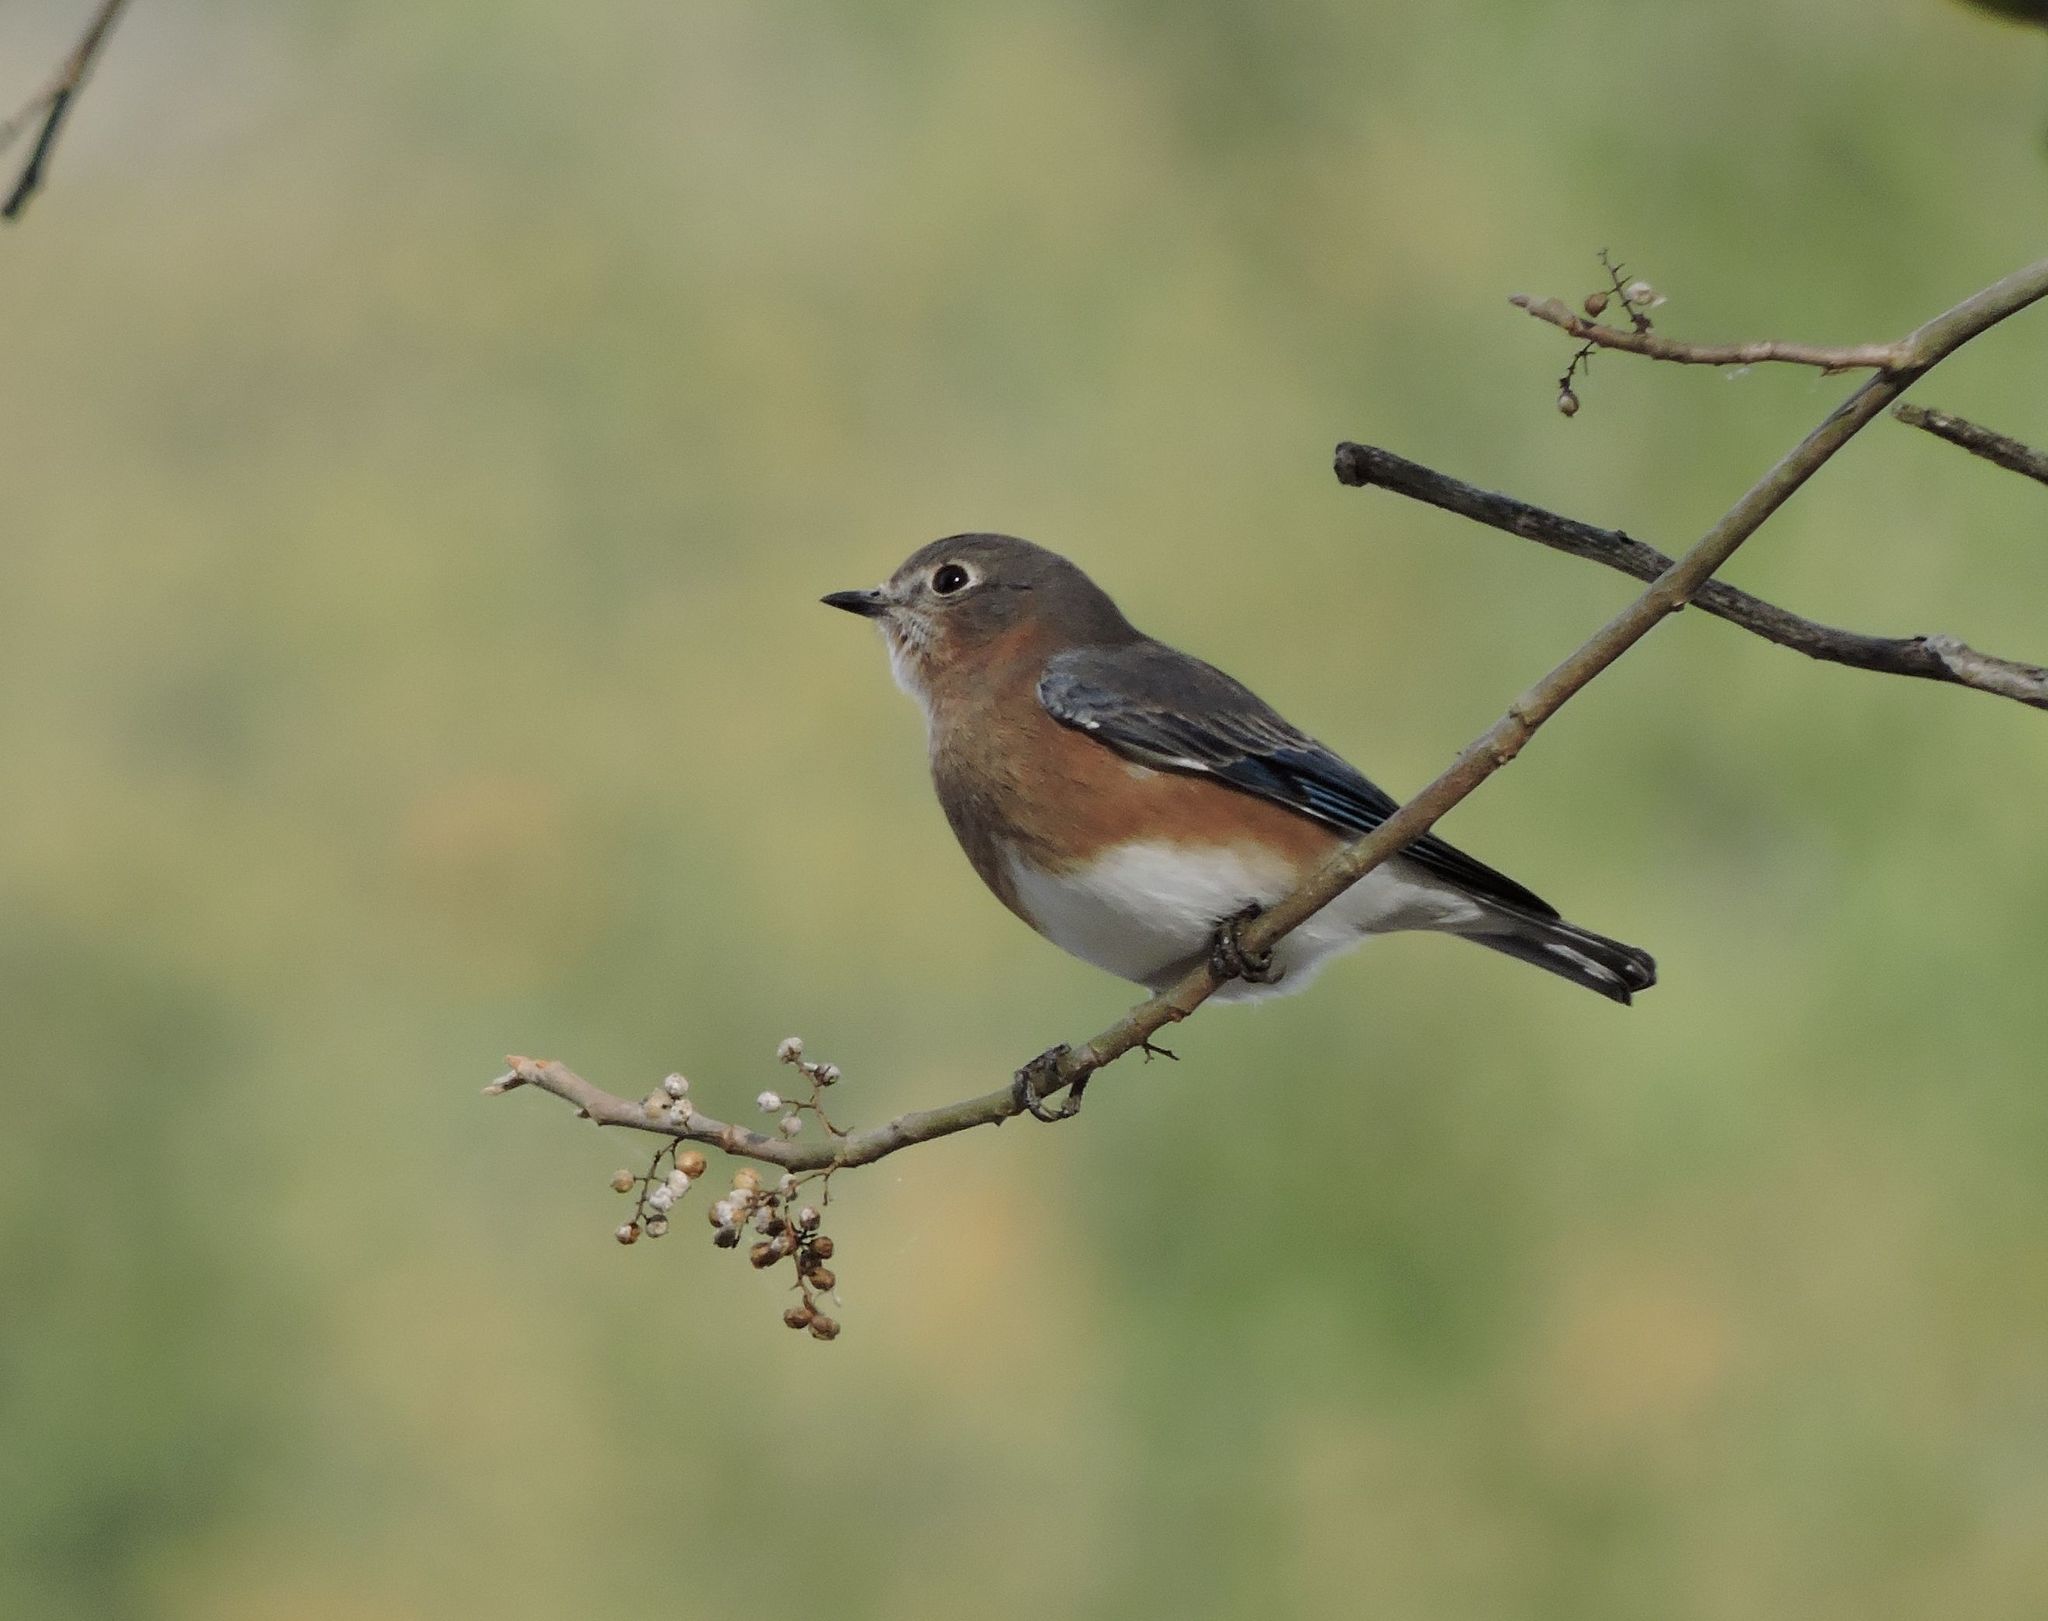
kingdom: Animalia
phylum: Chordata
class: Aves
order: Passeriformes
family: Turdidae
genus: Sialia
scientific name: Sialia sialis
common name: Eastern bluebird
